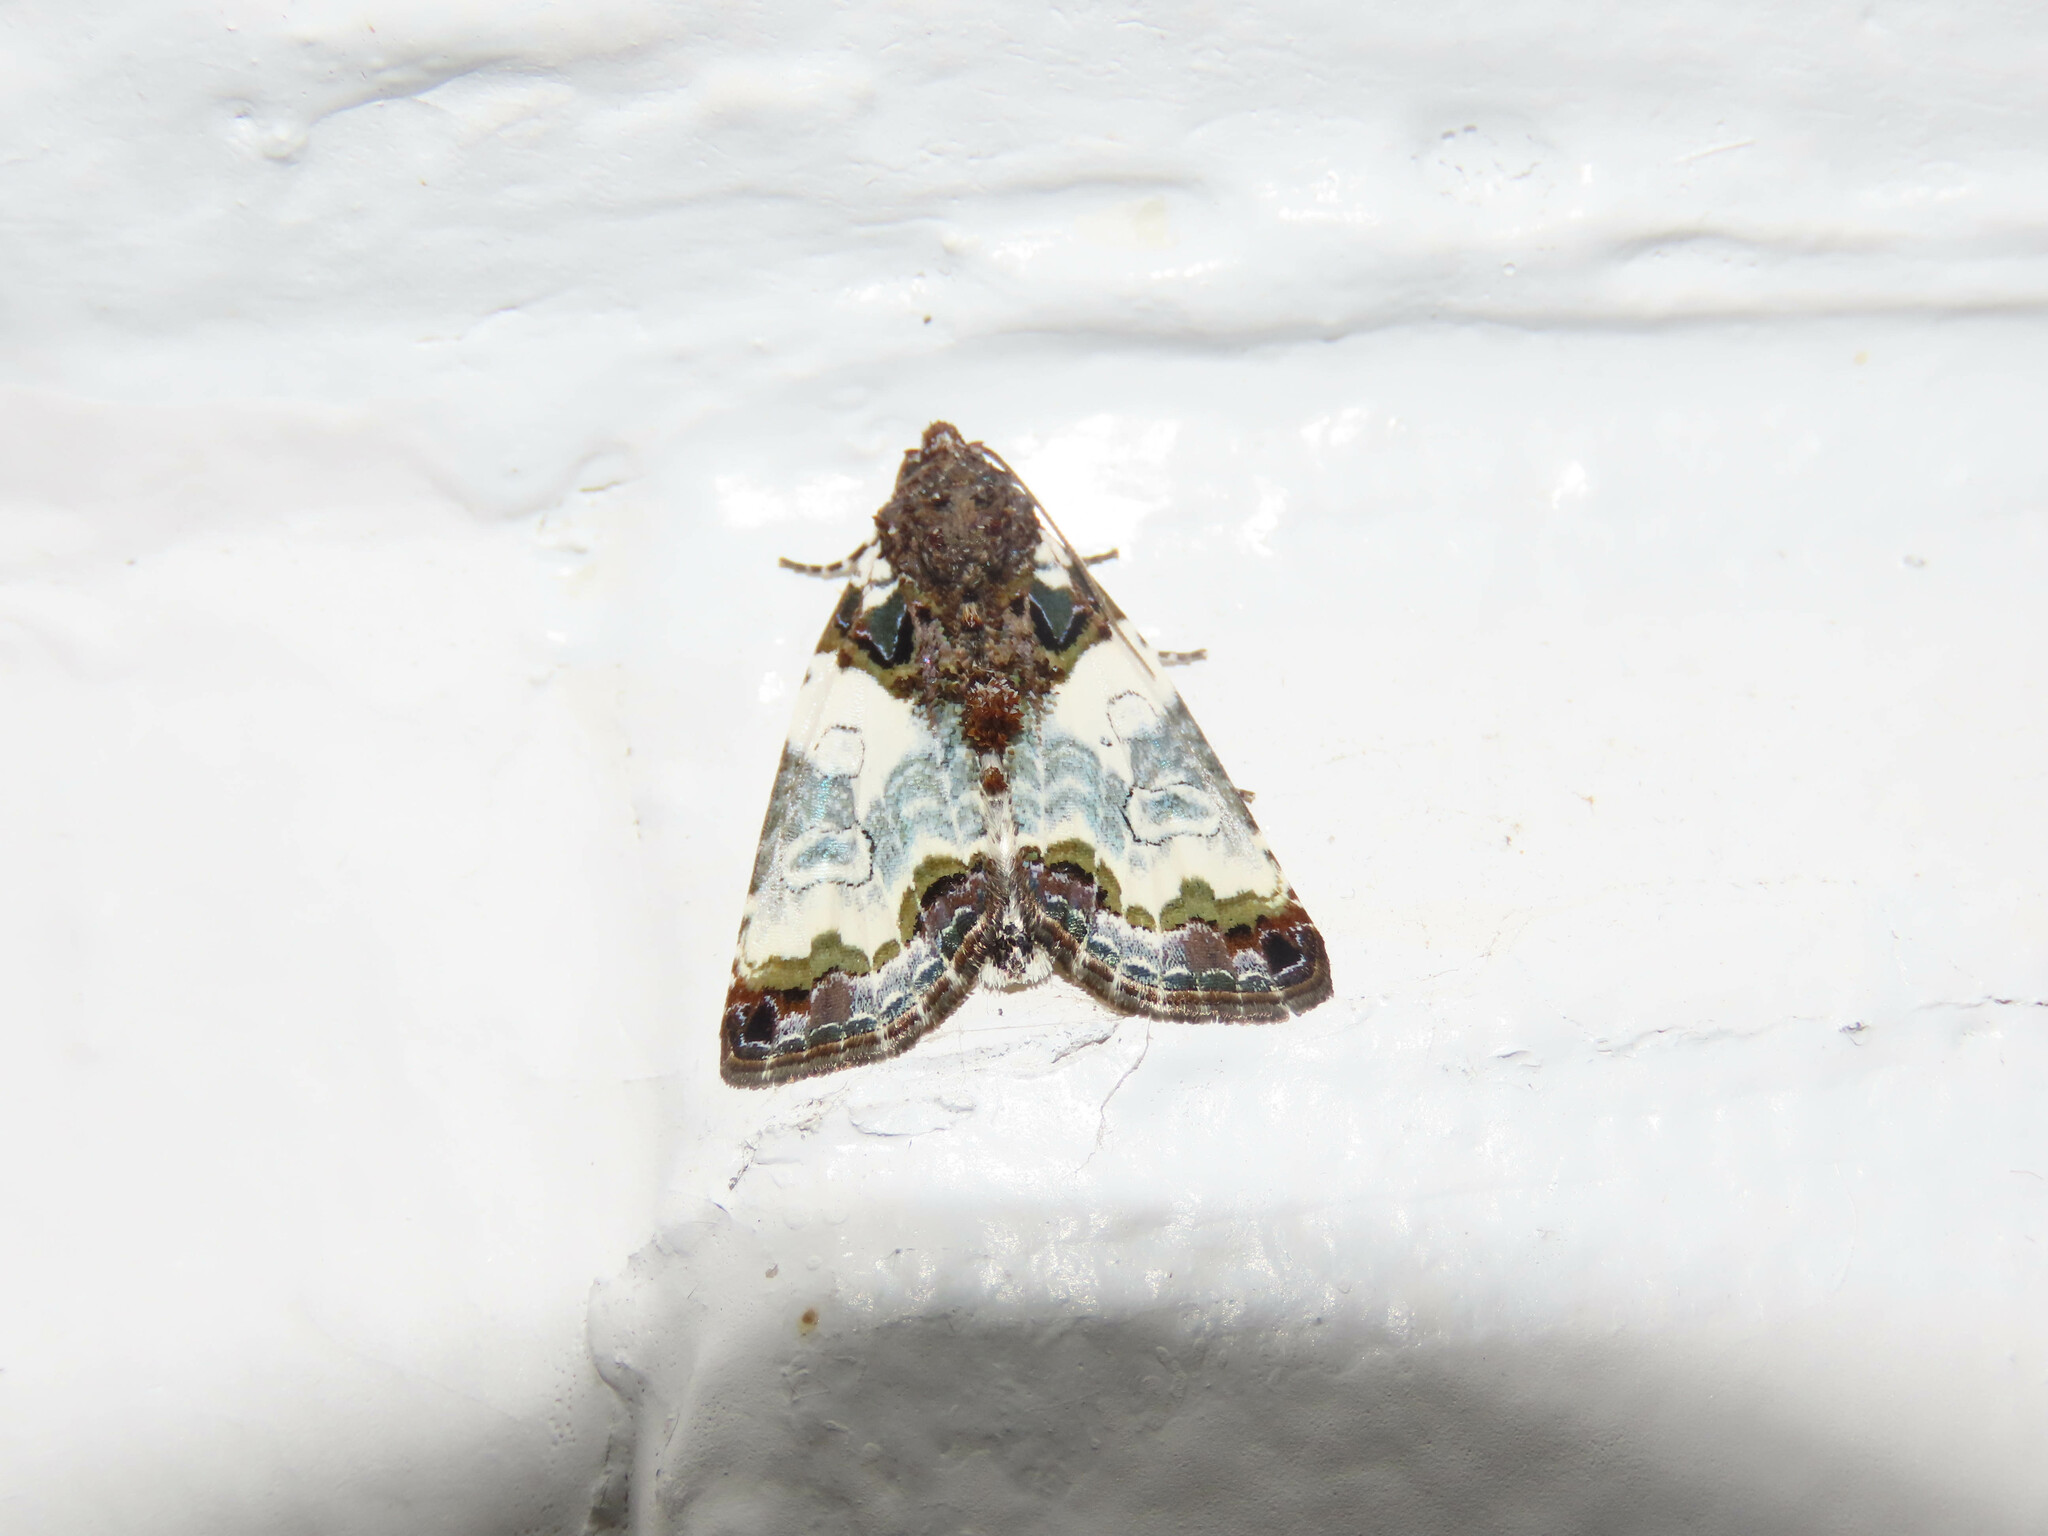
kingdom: Animalia
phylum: Arthropoda
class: Insecta
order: Lepidoptera
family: Noctuidae
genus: Cerma
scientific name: Cerma cerintha
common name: Tufted bird-dropping moth
